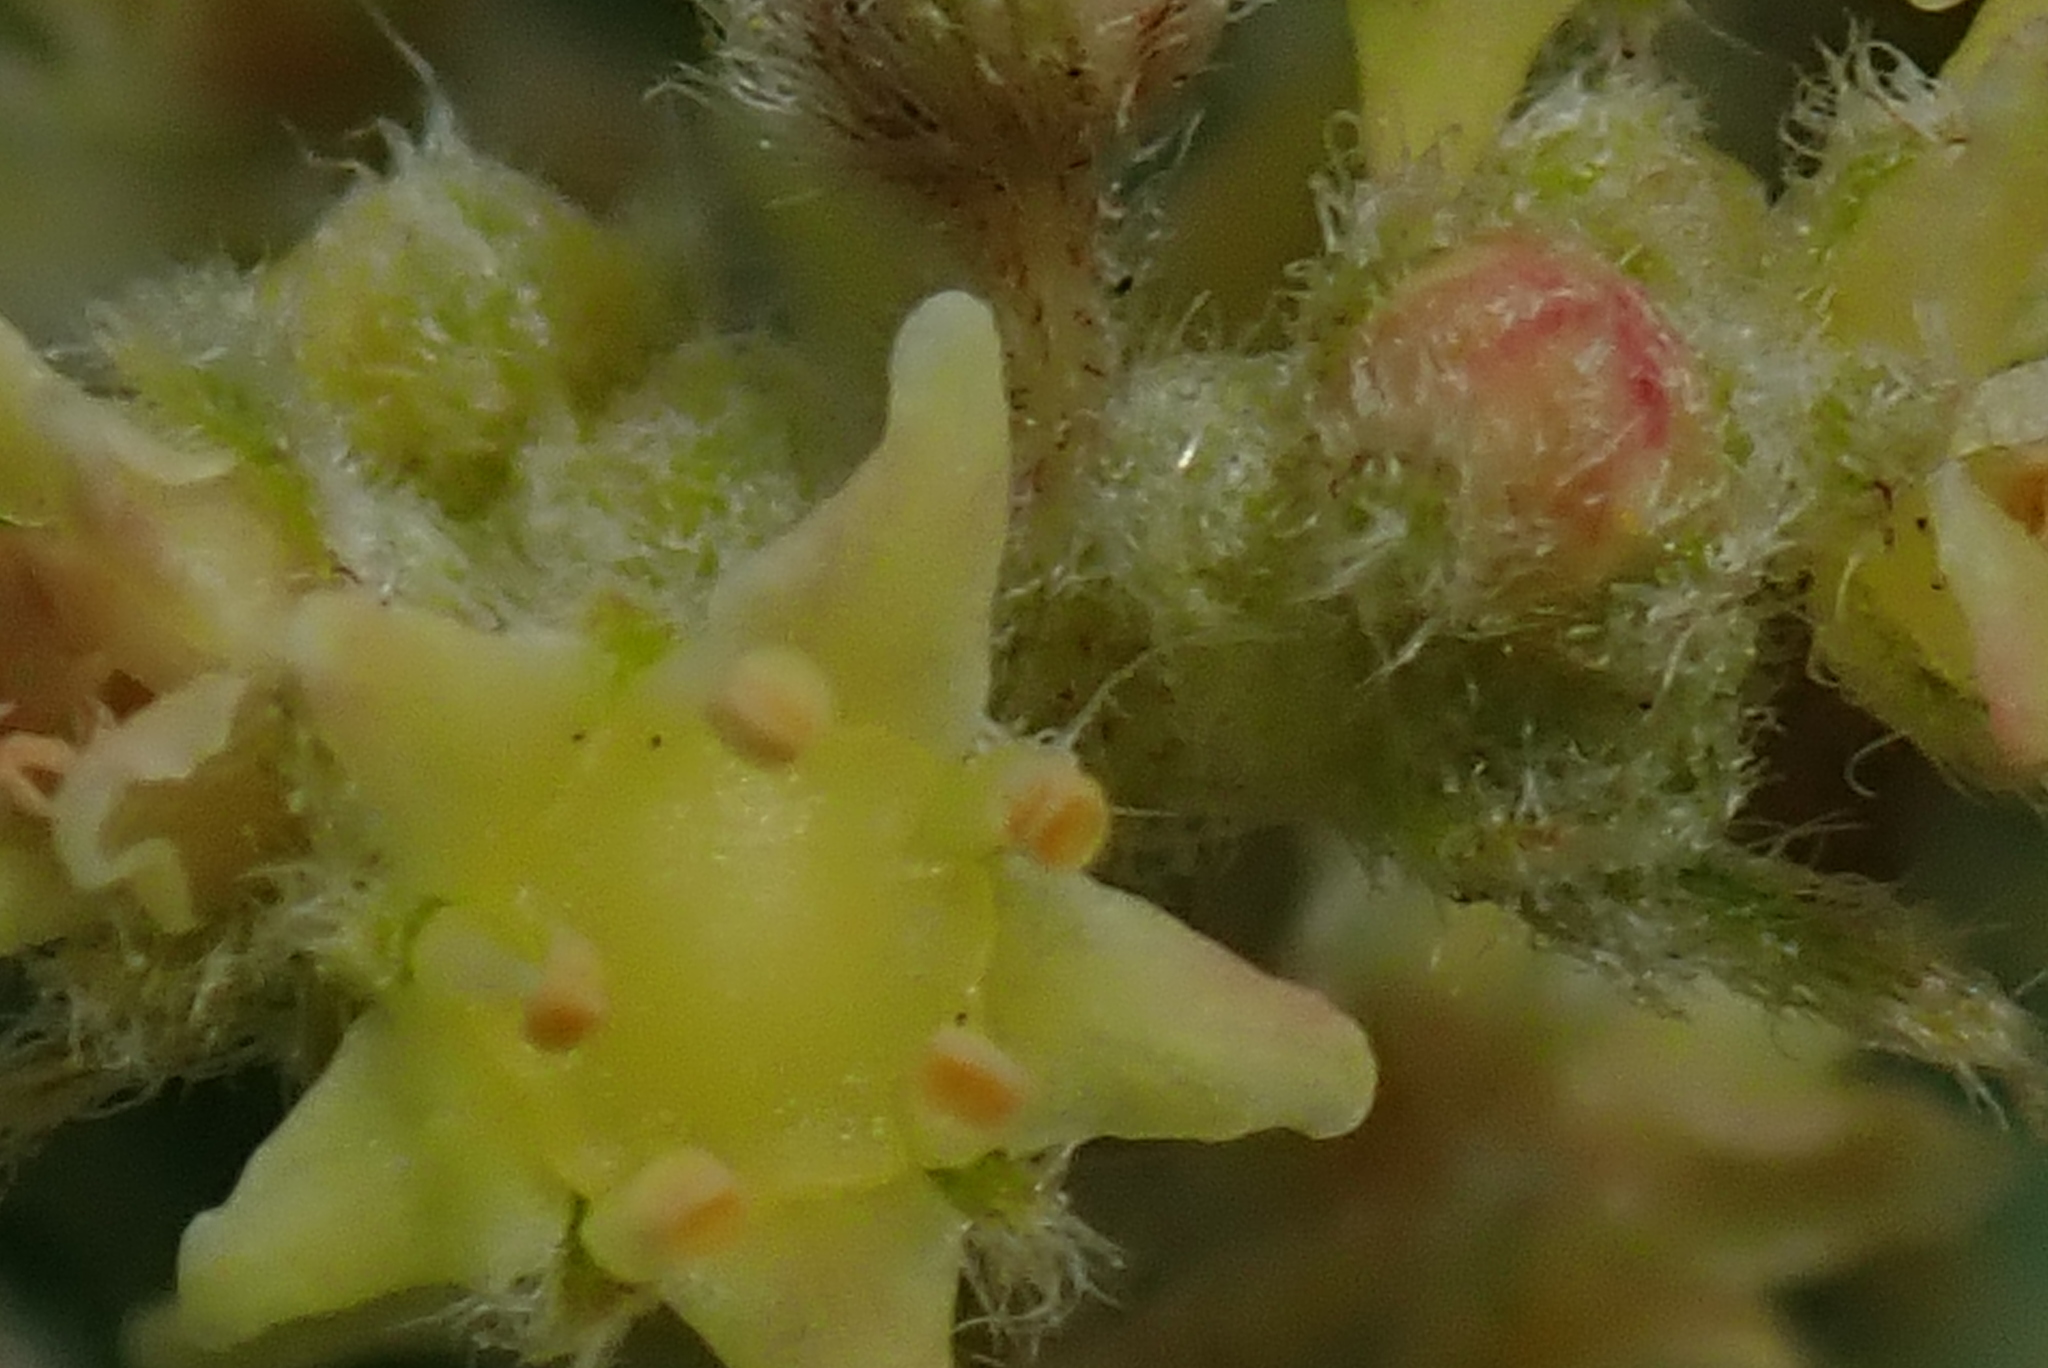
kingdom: Plantae
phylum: Tracheophyta
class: Magnoliopsida
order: Sapindales
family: Anacardiaceae
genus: Searsia
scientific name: Searsia discolor
